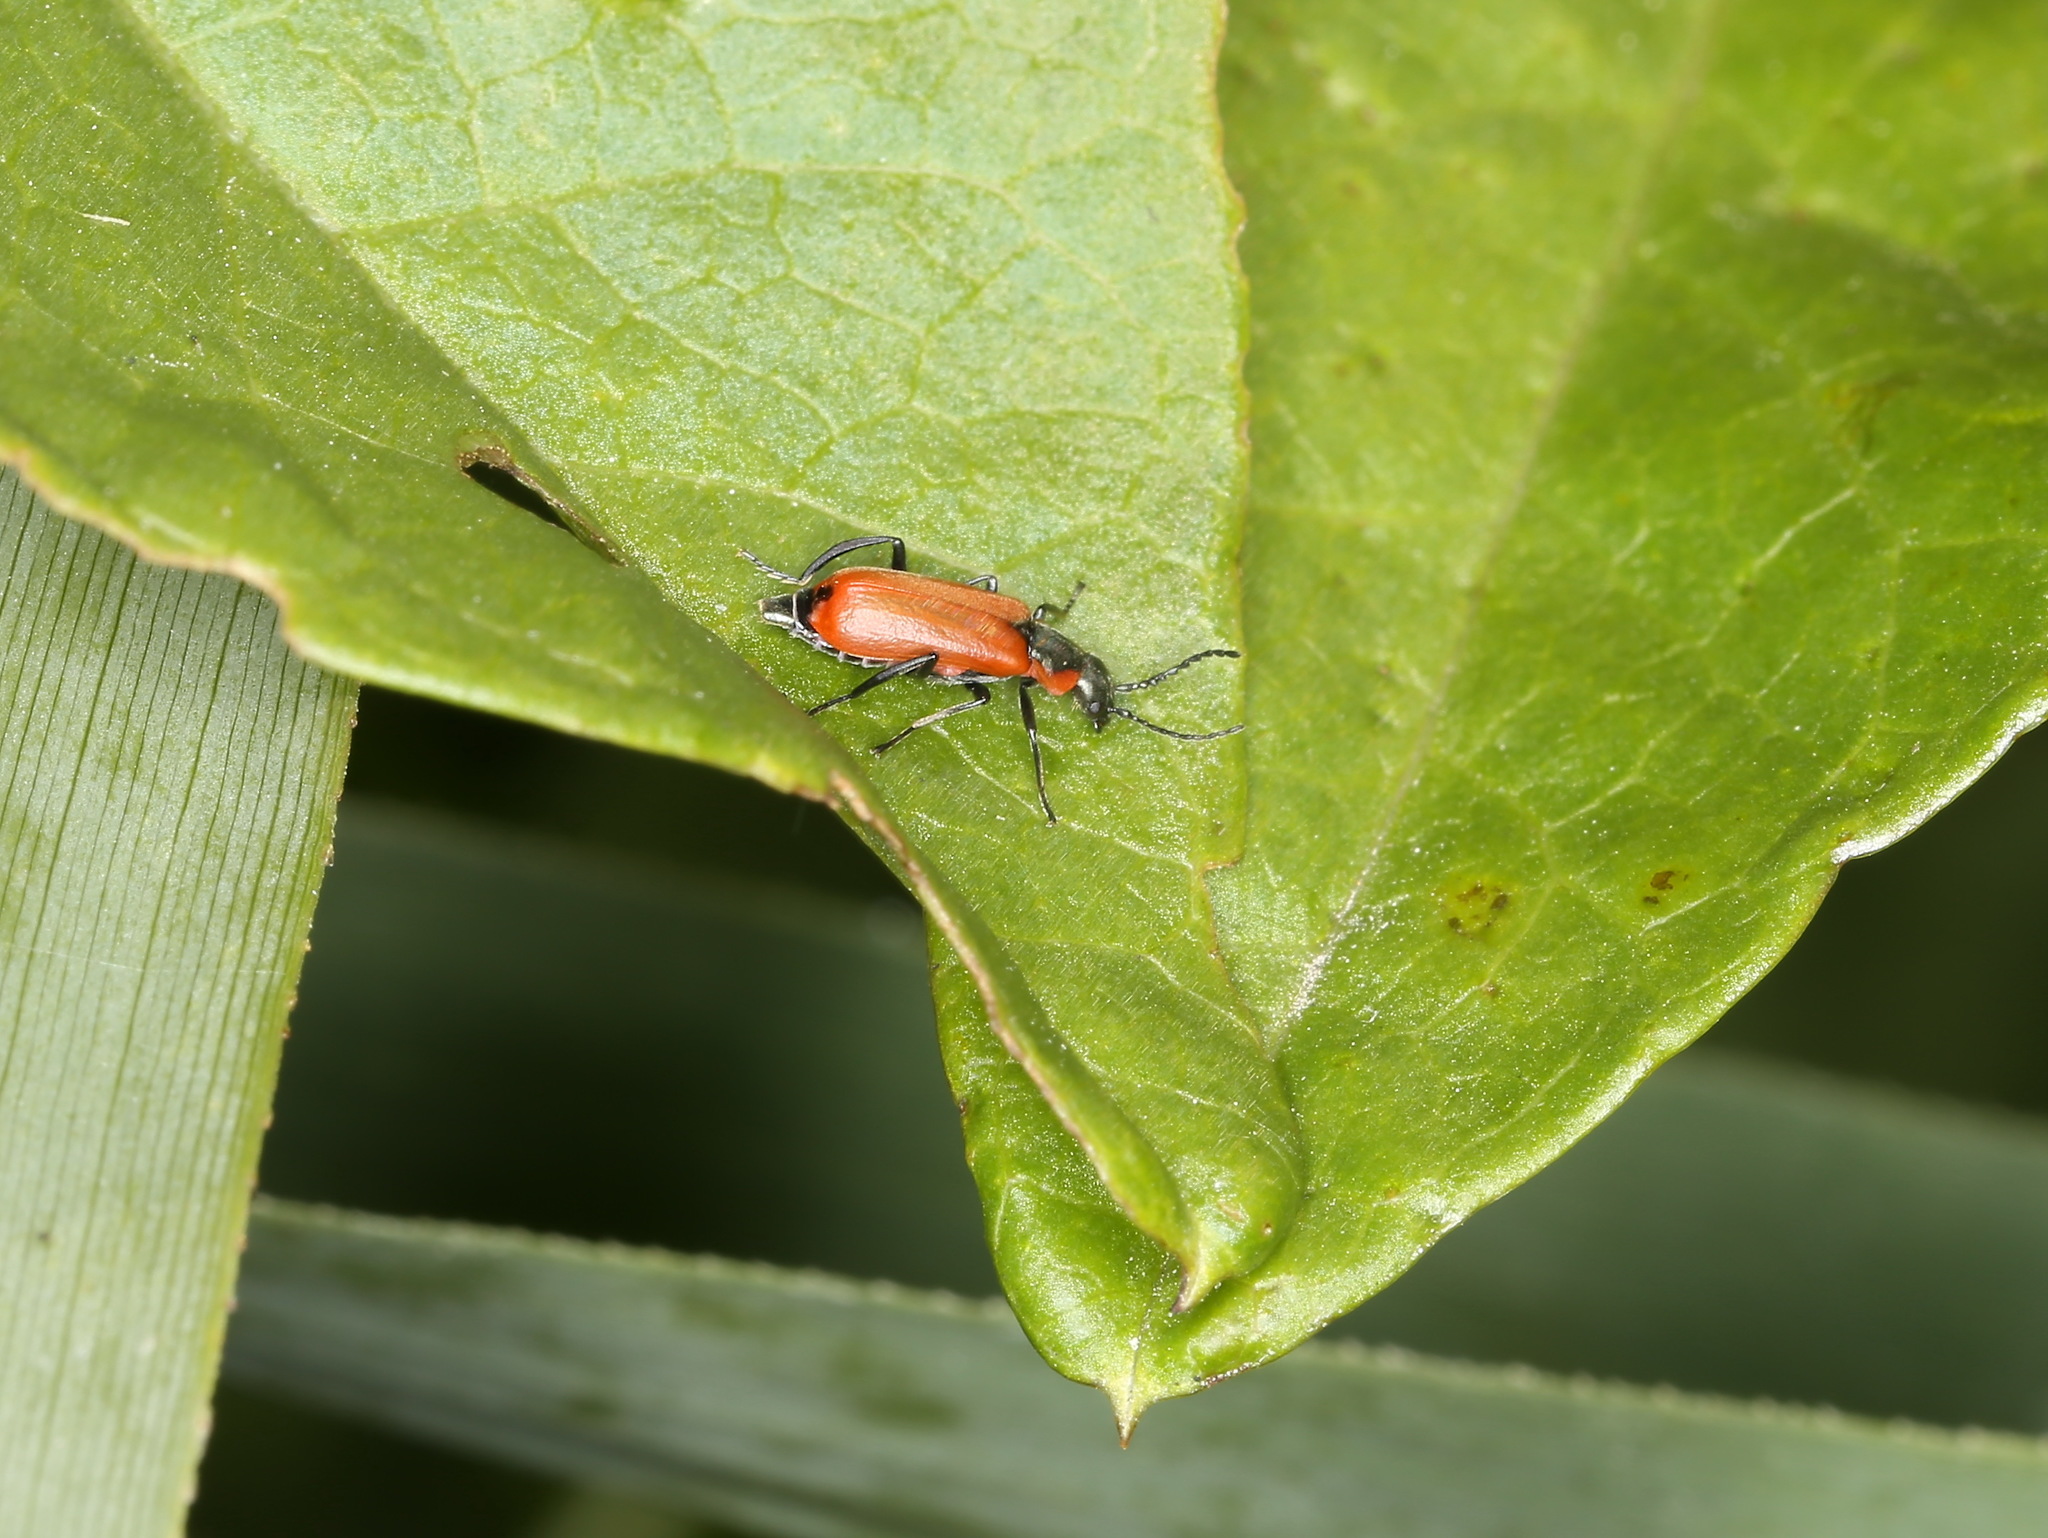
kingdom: Animalia
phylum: Arthropoda
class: Insecta
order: Coleoptera
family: Melyridae
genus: Anthocomus
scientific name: Anthocomus rufus
